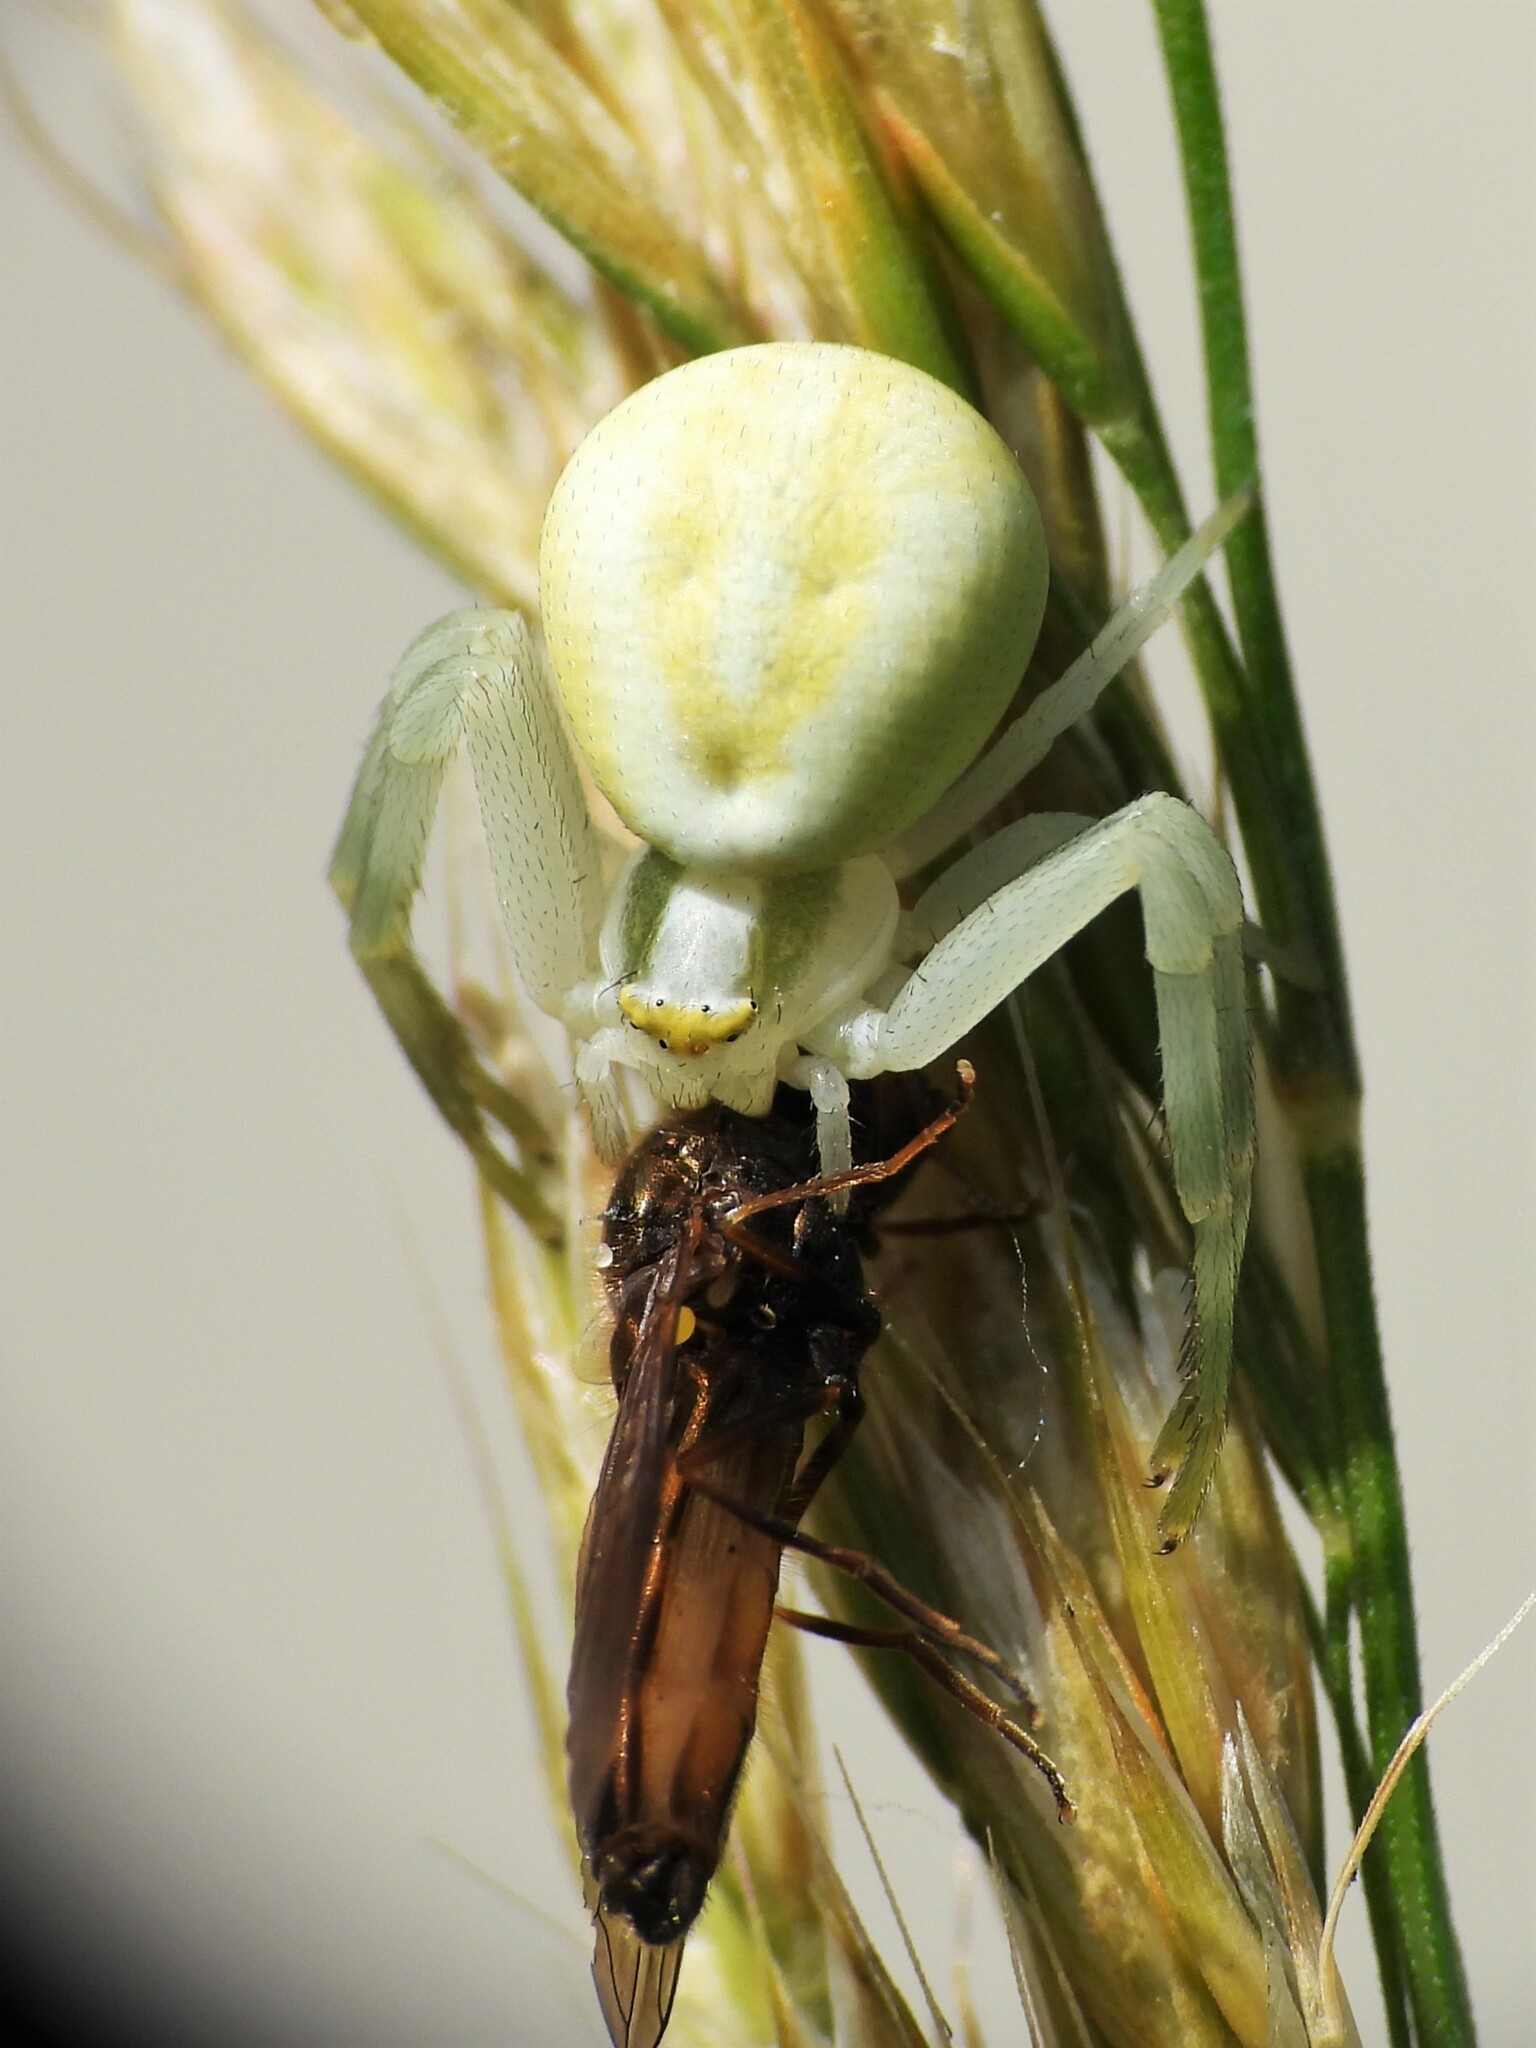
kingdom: Animalia
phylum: Arthropoda
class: Arachnida
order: Araneae
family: Thomisidae
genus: Misumena
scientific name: Misumena vatia
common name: Goldenrod crab spider
